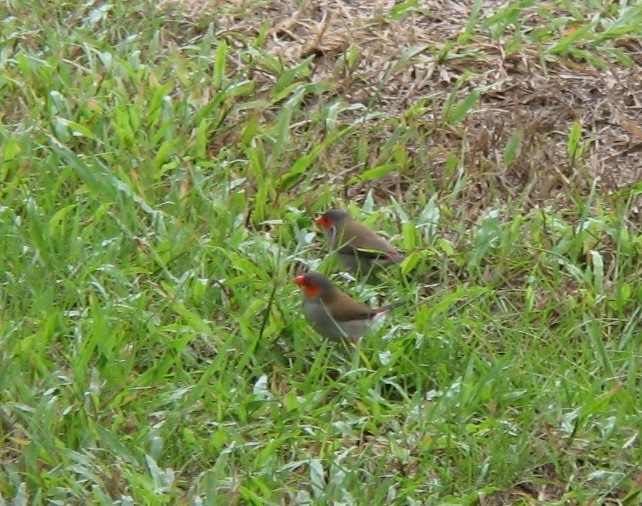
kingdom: Animalia
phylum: Chordata
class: Aves
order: Passeriformes
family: Estrildidae
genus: Estrilda
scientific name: Estrilda melpoda
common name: Orange-cheeked waxbill
